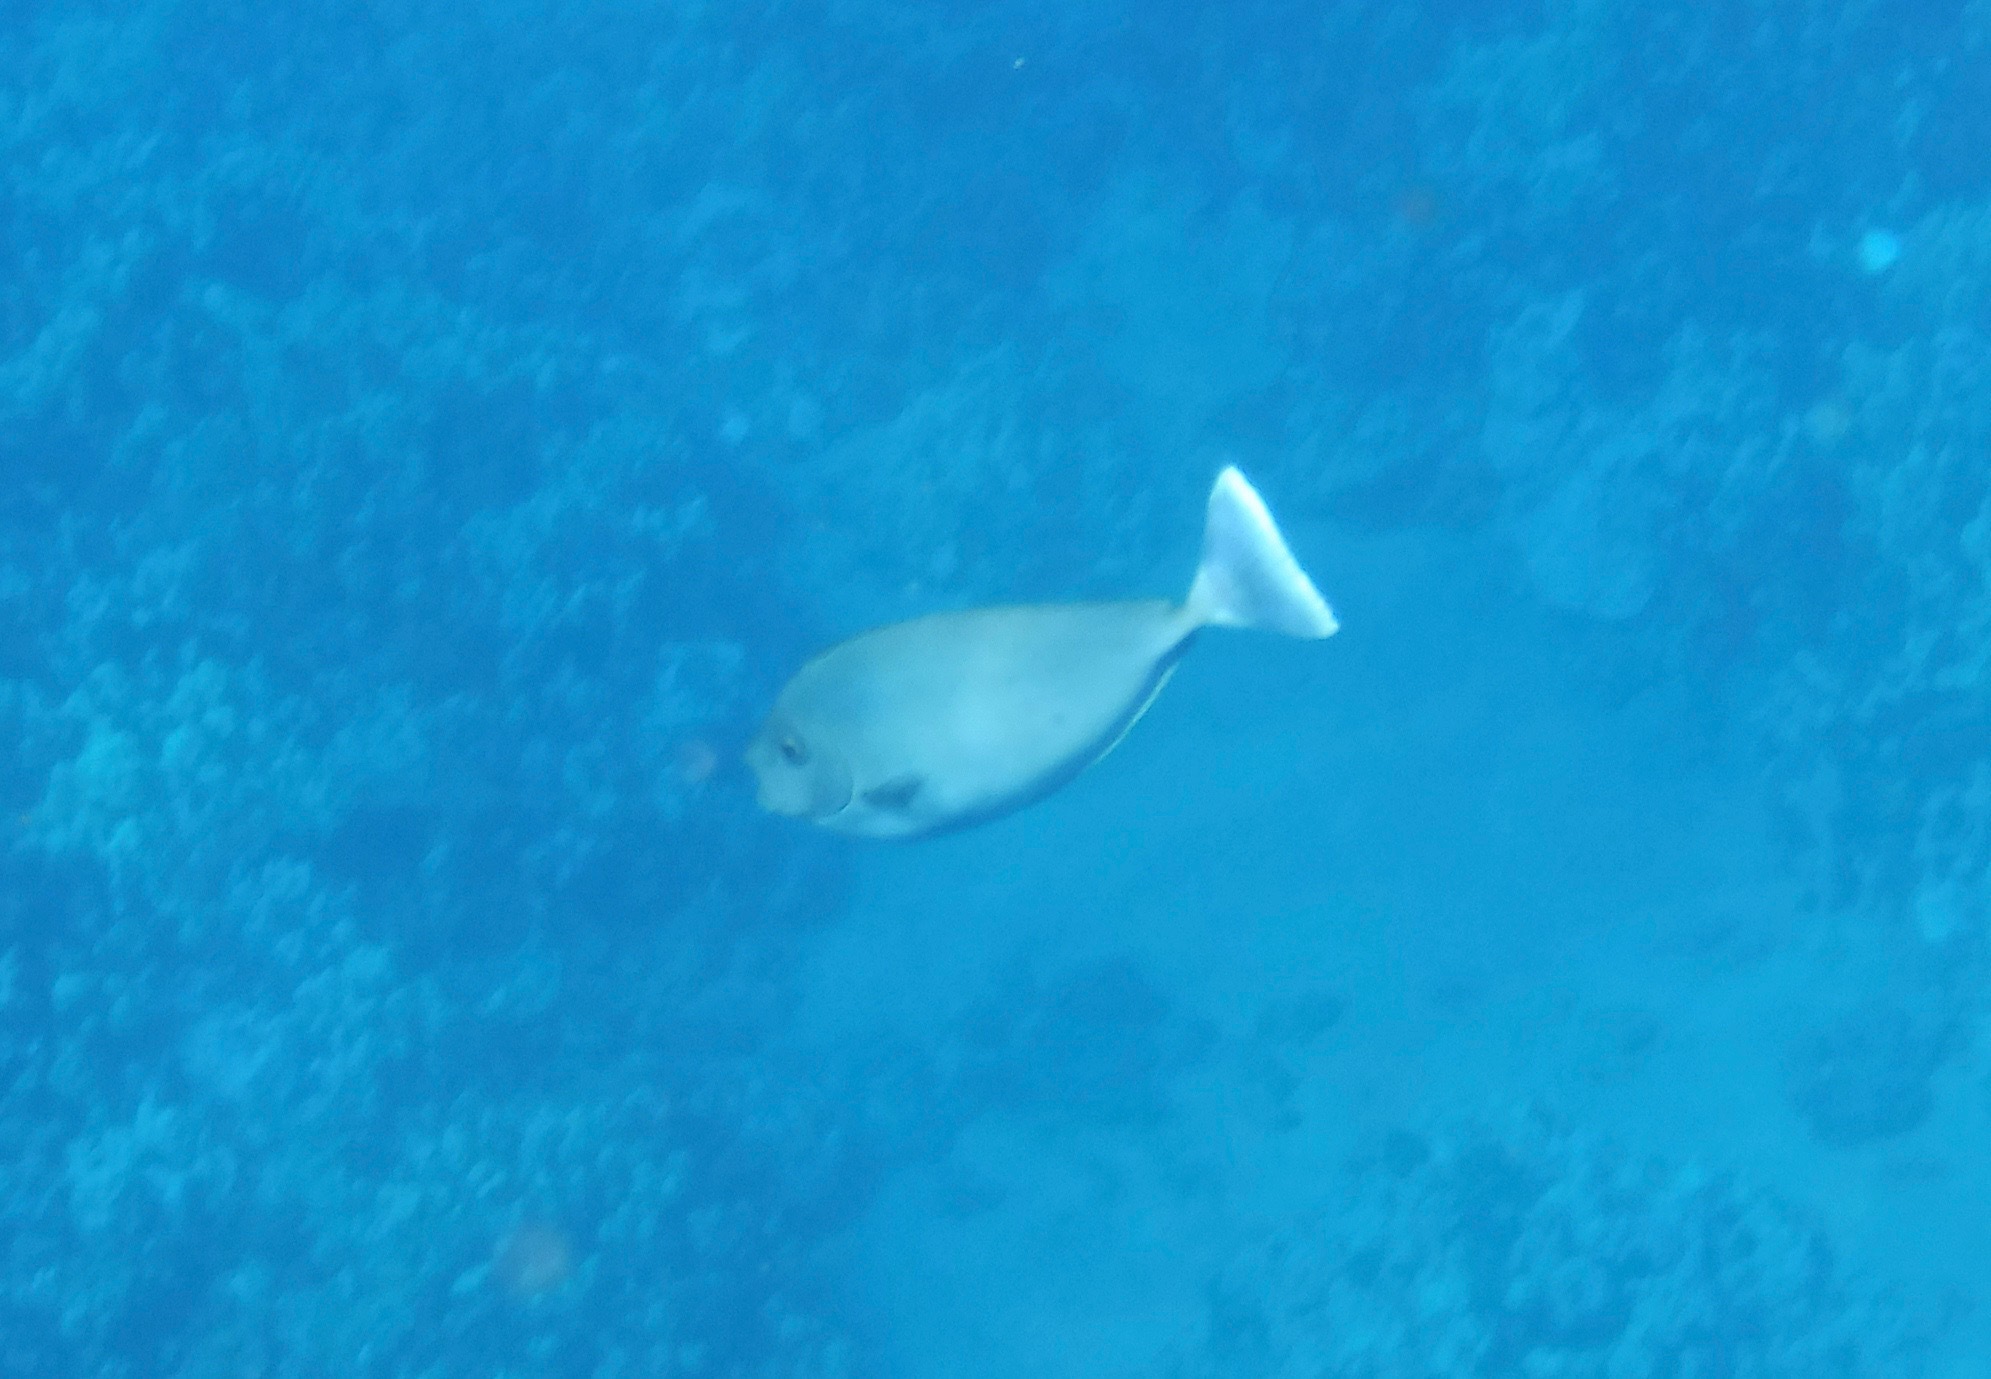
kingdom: Animalia
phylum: Chordata
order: Perciformes
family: Acanthuridae
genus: Naso
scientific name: Naso brevirostris
